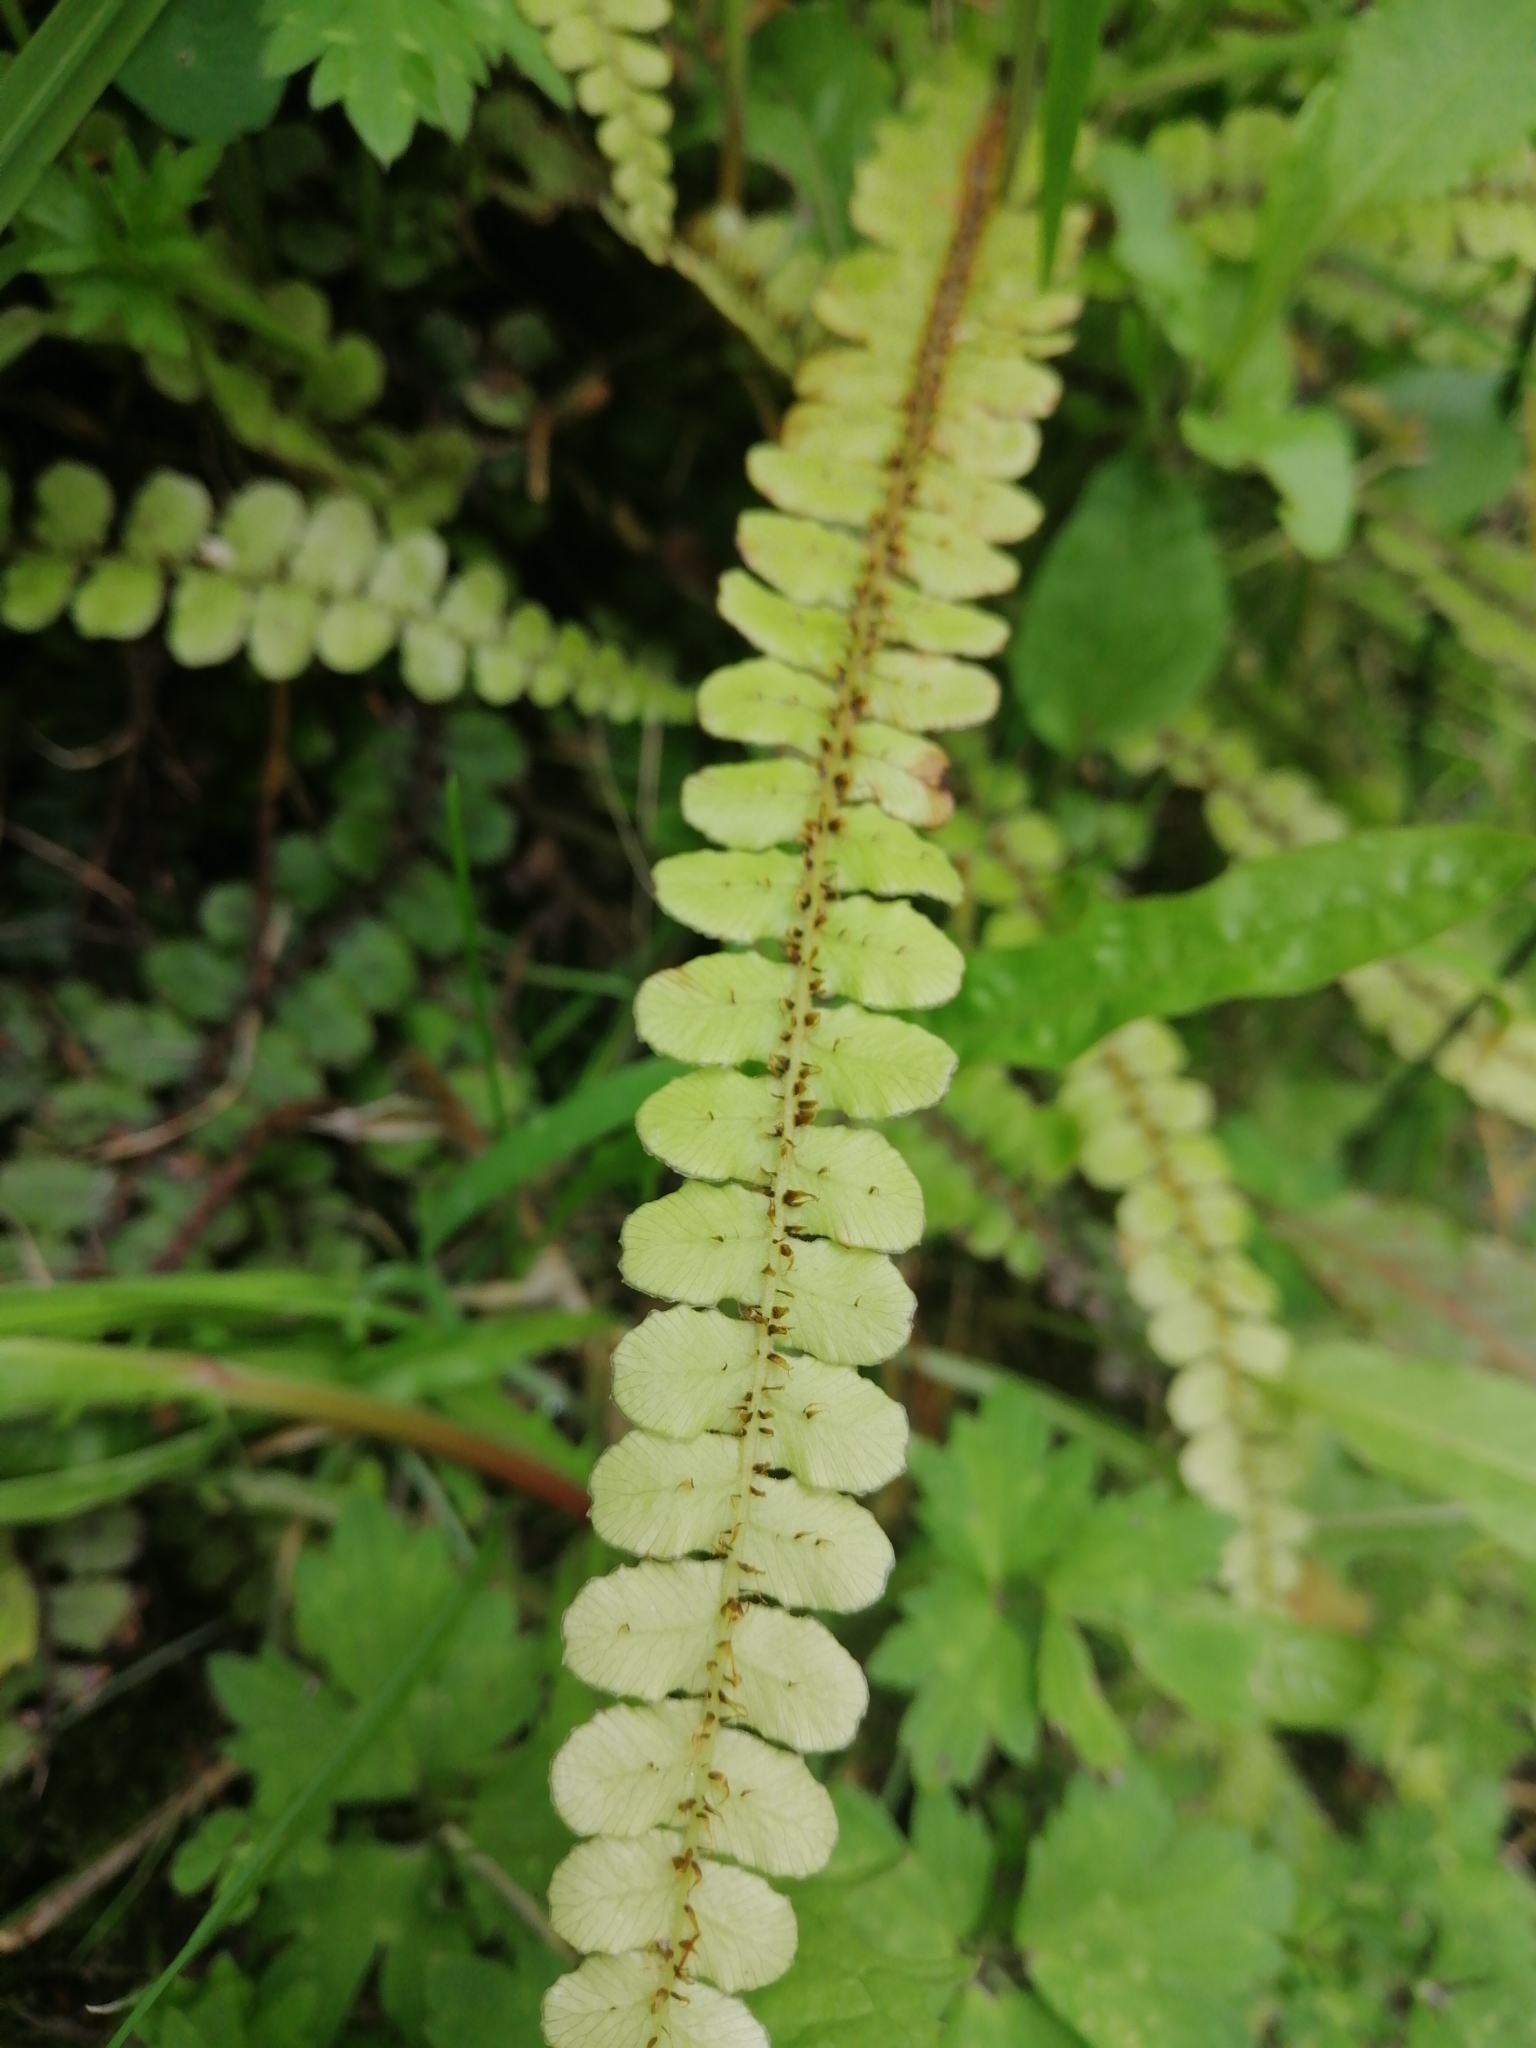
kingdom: Plantae
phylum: Tracheophyta
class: Polypodiopsida
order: Polypodiales
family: Blechnaceae
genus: Cranfillia
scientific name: Cranfillia fluviatilis
